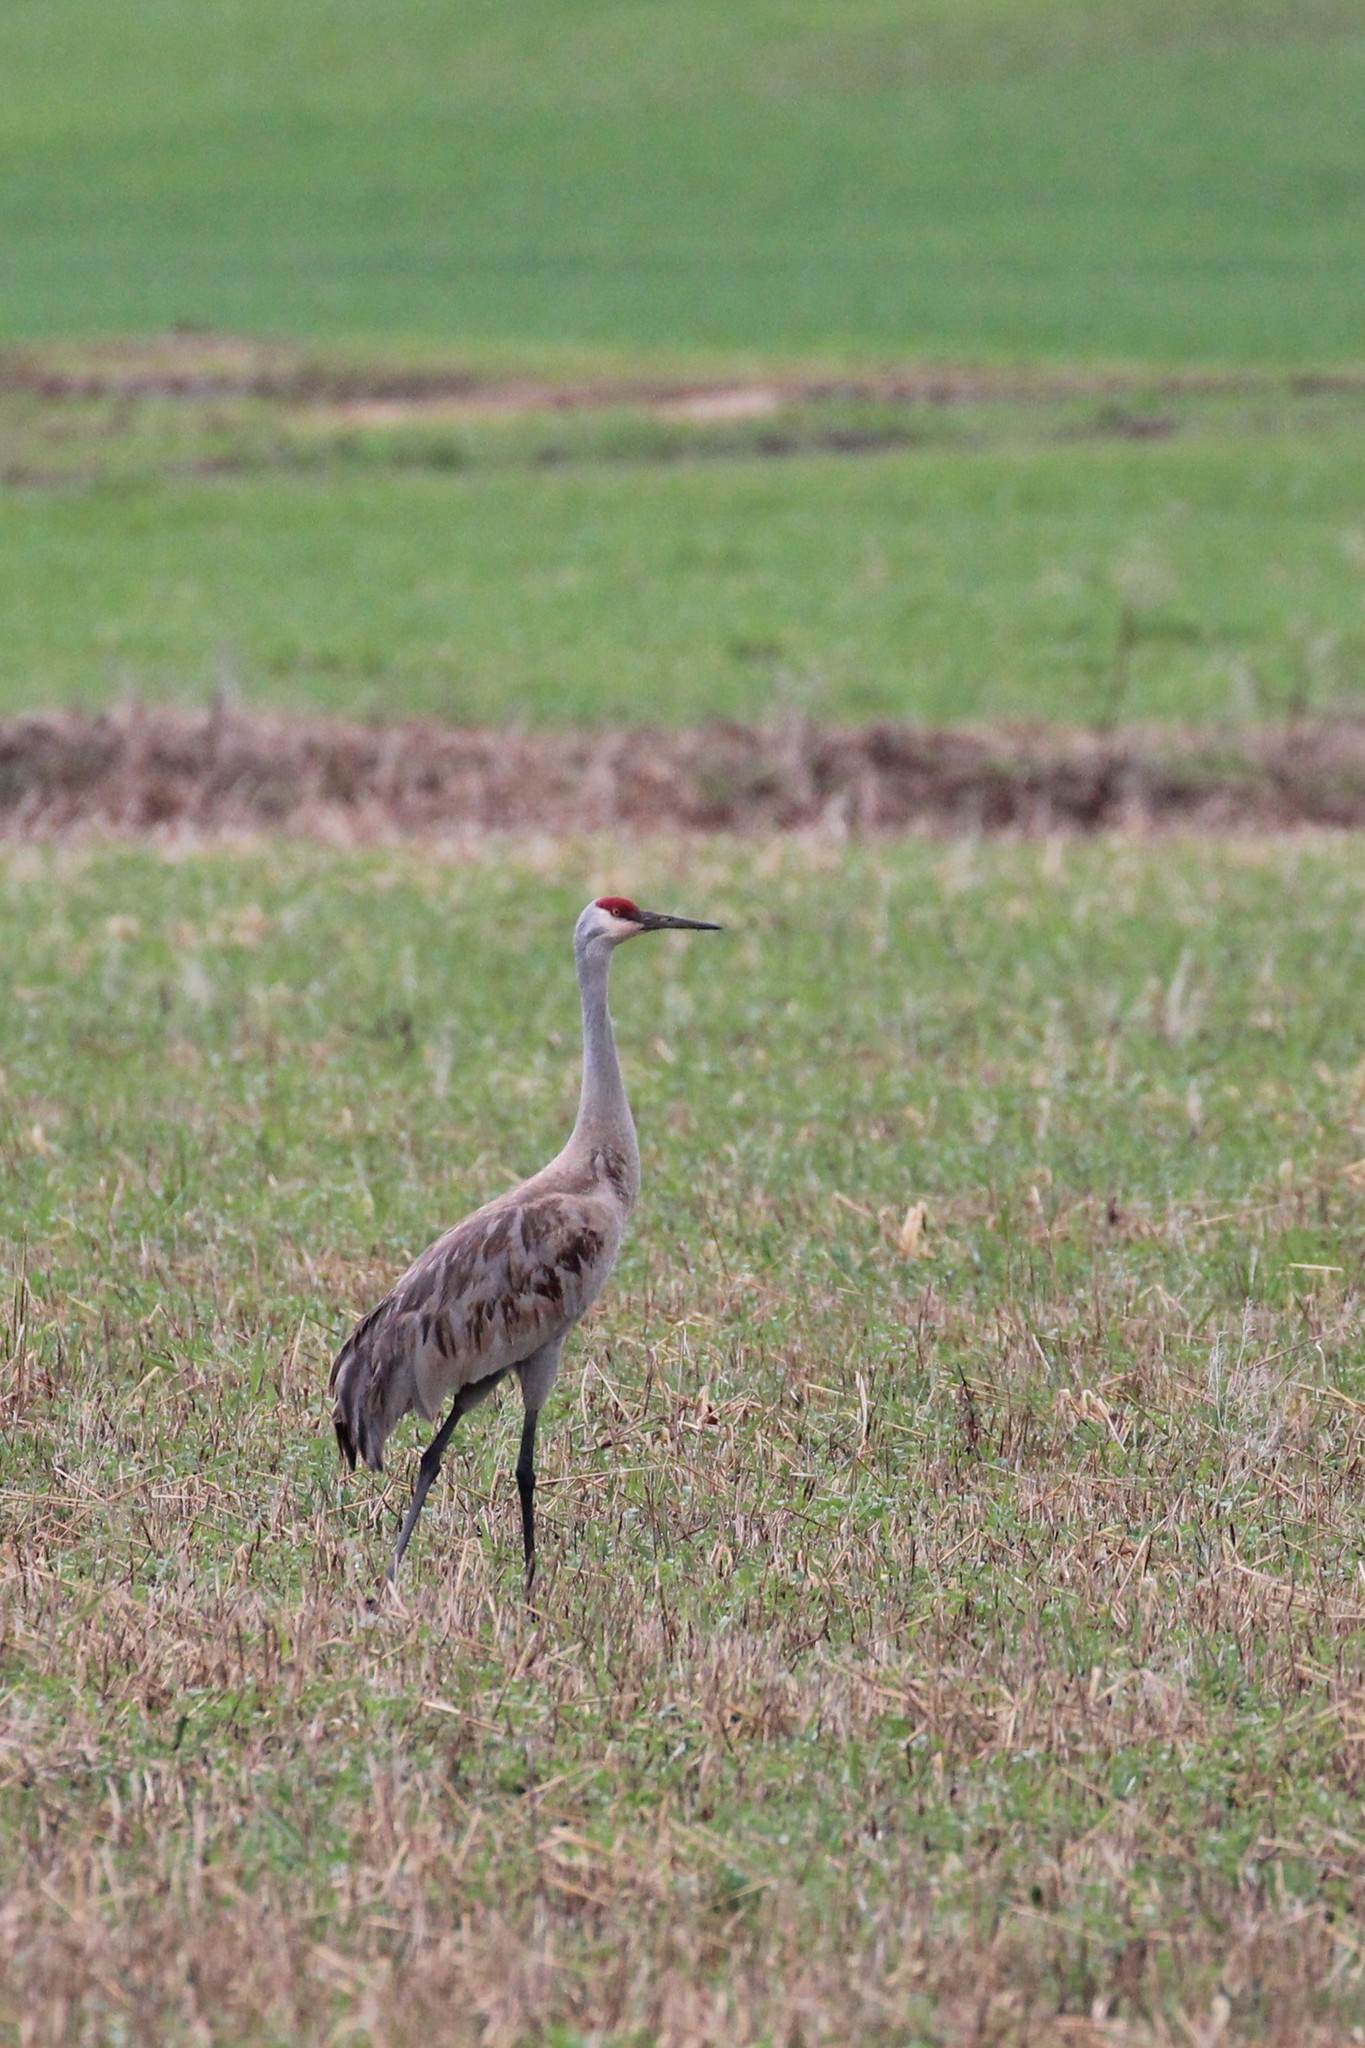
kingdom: Animalia
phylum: Chordata
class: Aves
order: Gruiformes
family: Gruidae
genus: Grus
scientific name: Grus canadensis
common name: Sandhill crane
